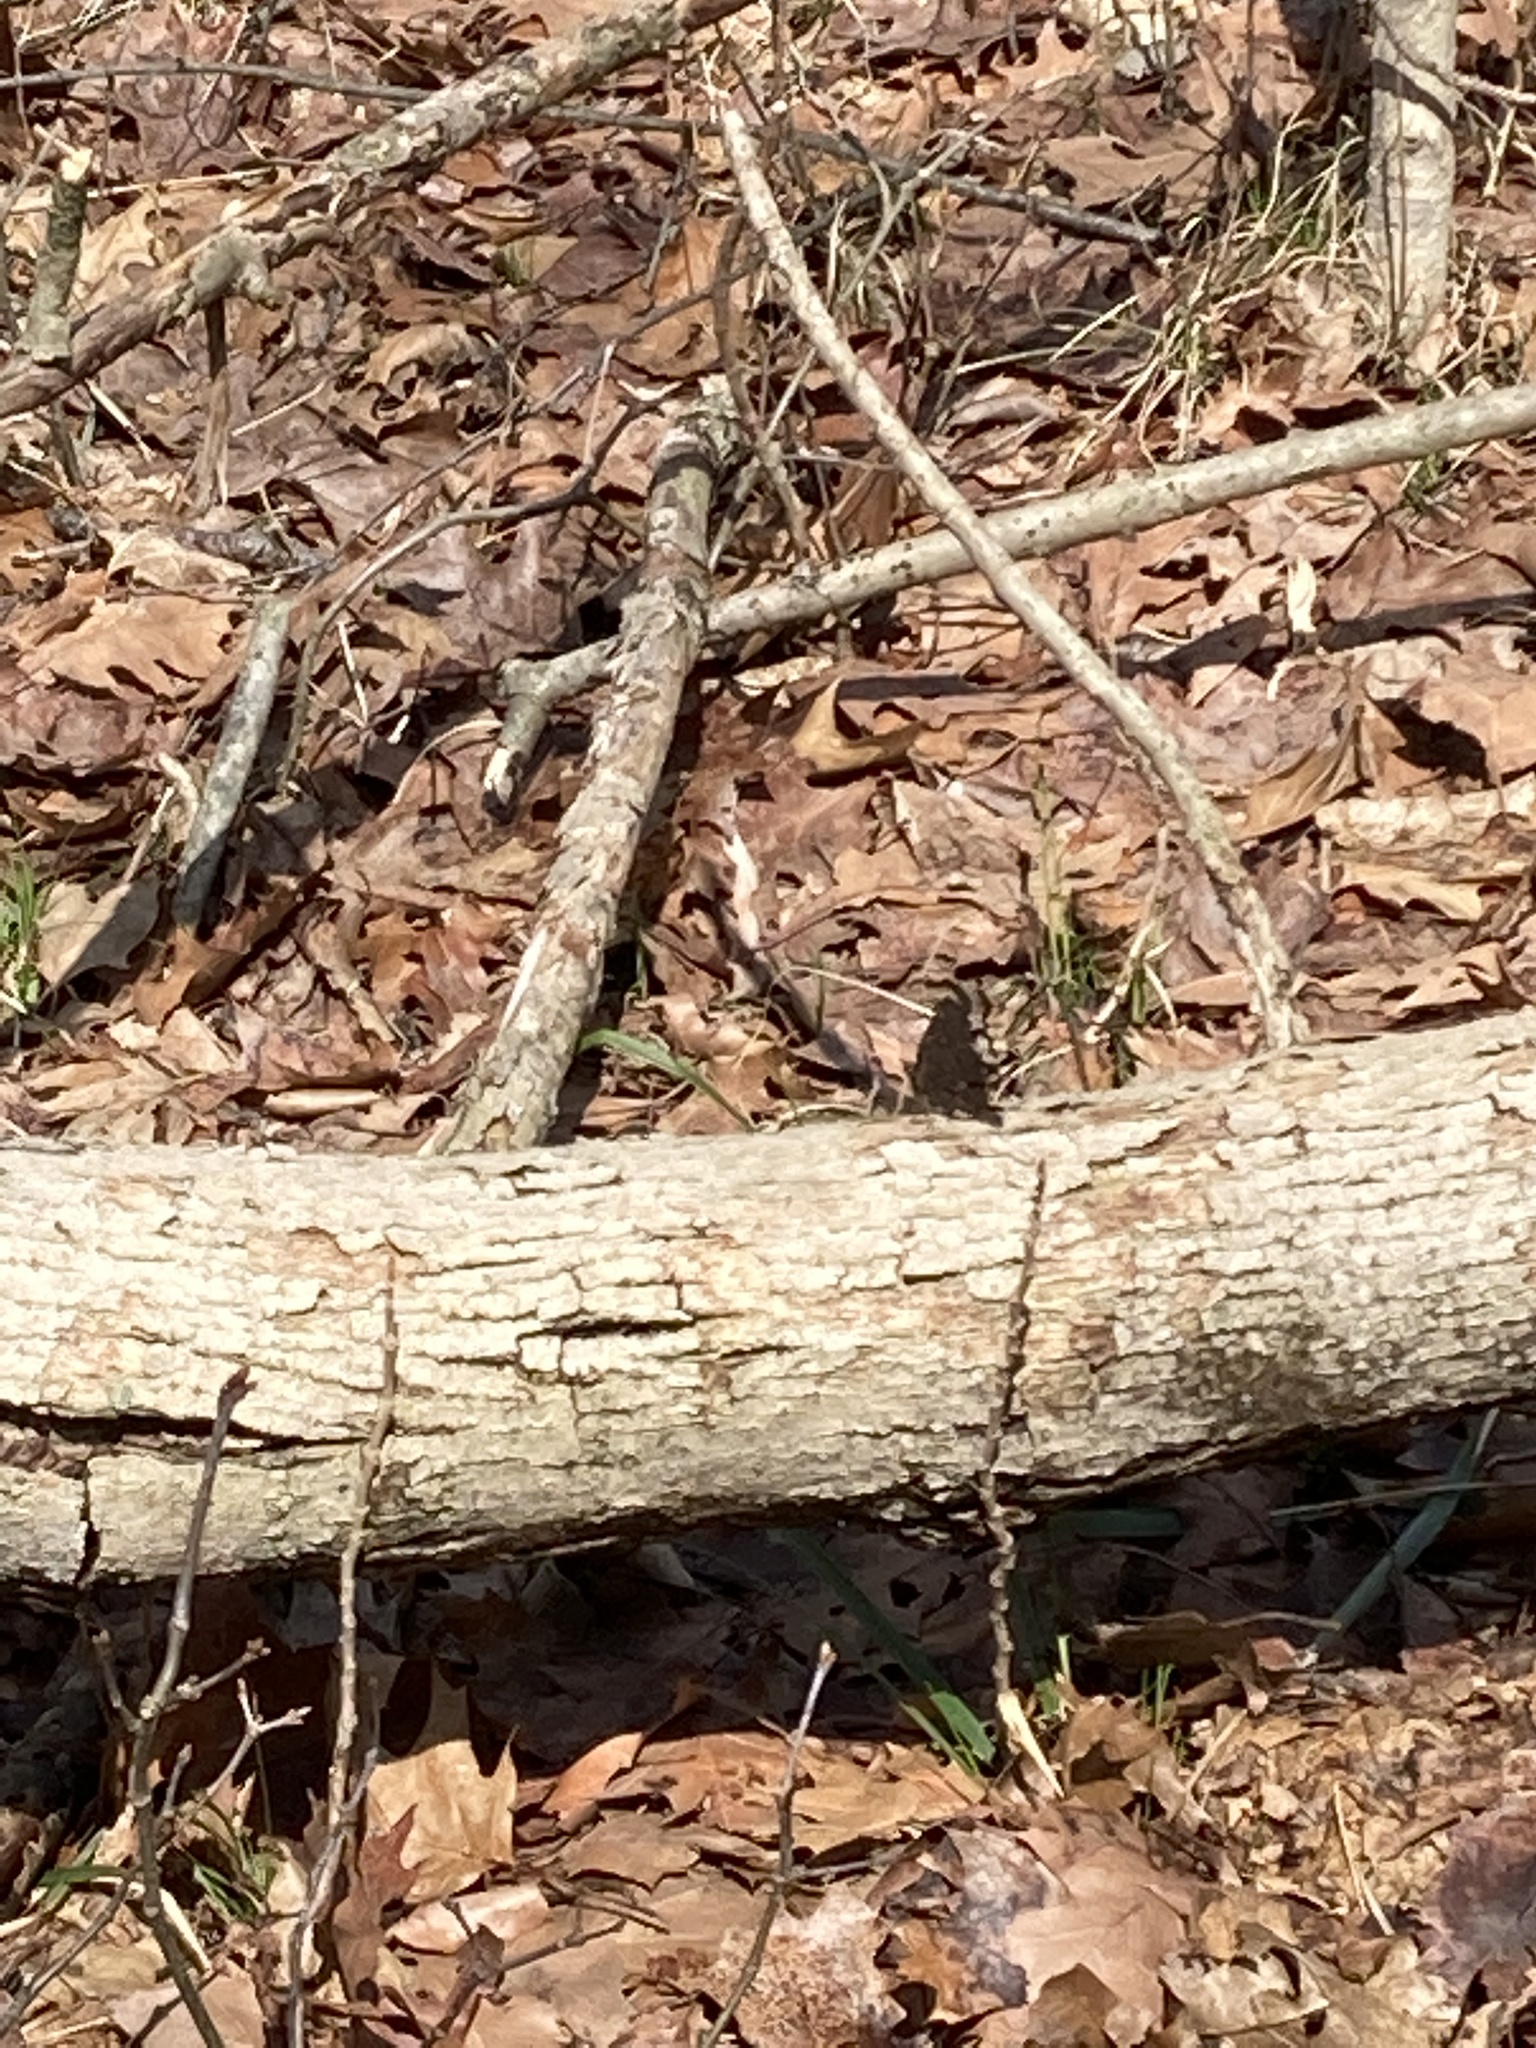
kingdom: Animalia
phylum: Arthropoda
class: Insecta
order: Lepidoptera
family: Nymphalidae
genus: Nymphalis
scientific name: Nymphalis antiopa
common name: Camberwell beauty
